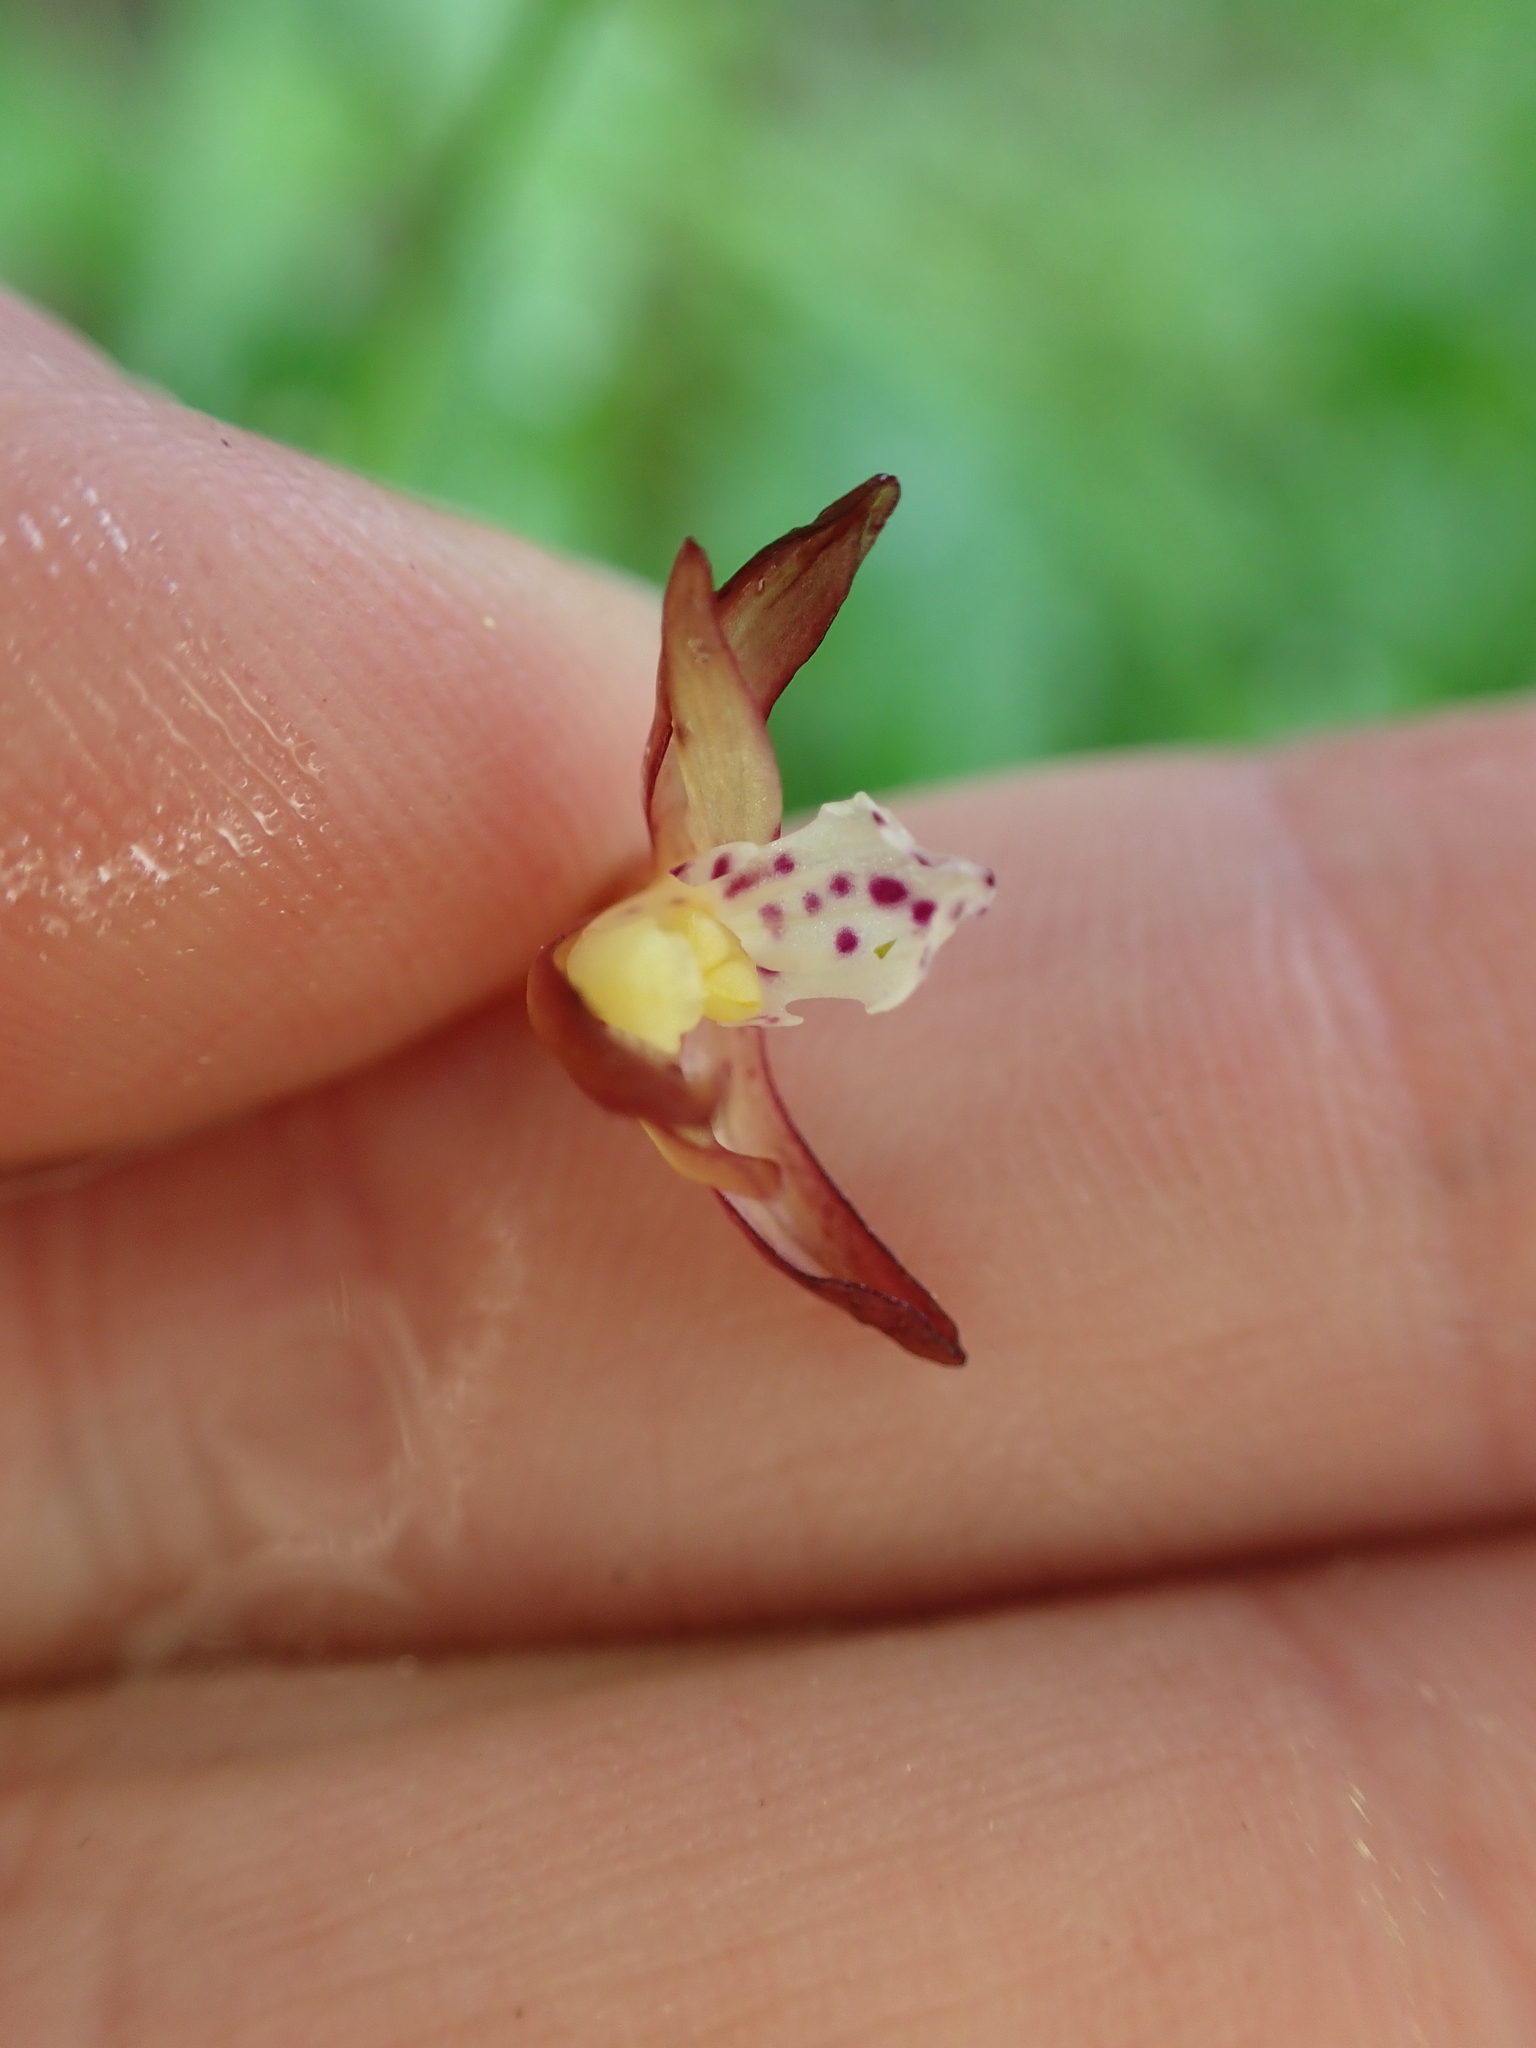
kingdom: Plantae
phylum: Tracheophyta
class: Liliopsida
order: Asparagales
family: Orchidaceae
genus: Corallorhiza
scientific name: Corallorhiza maculata
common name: Spotted coralroot
